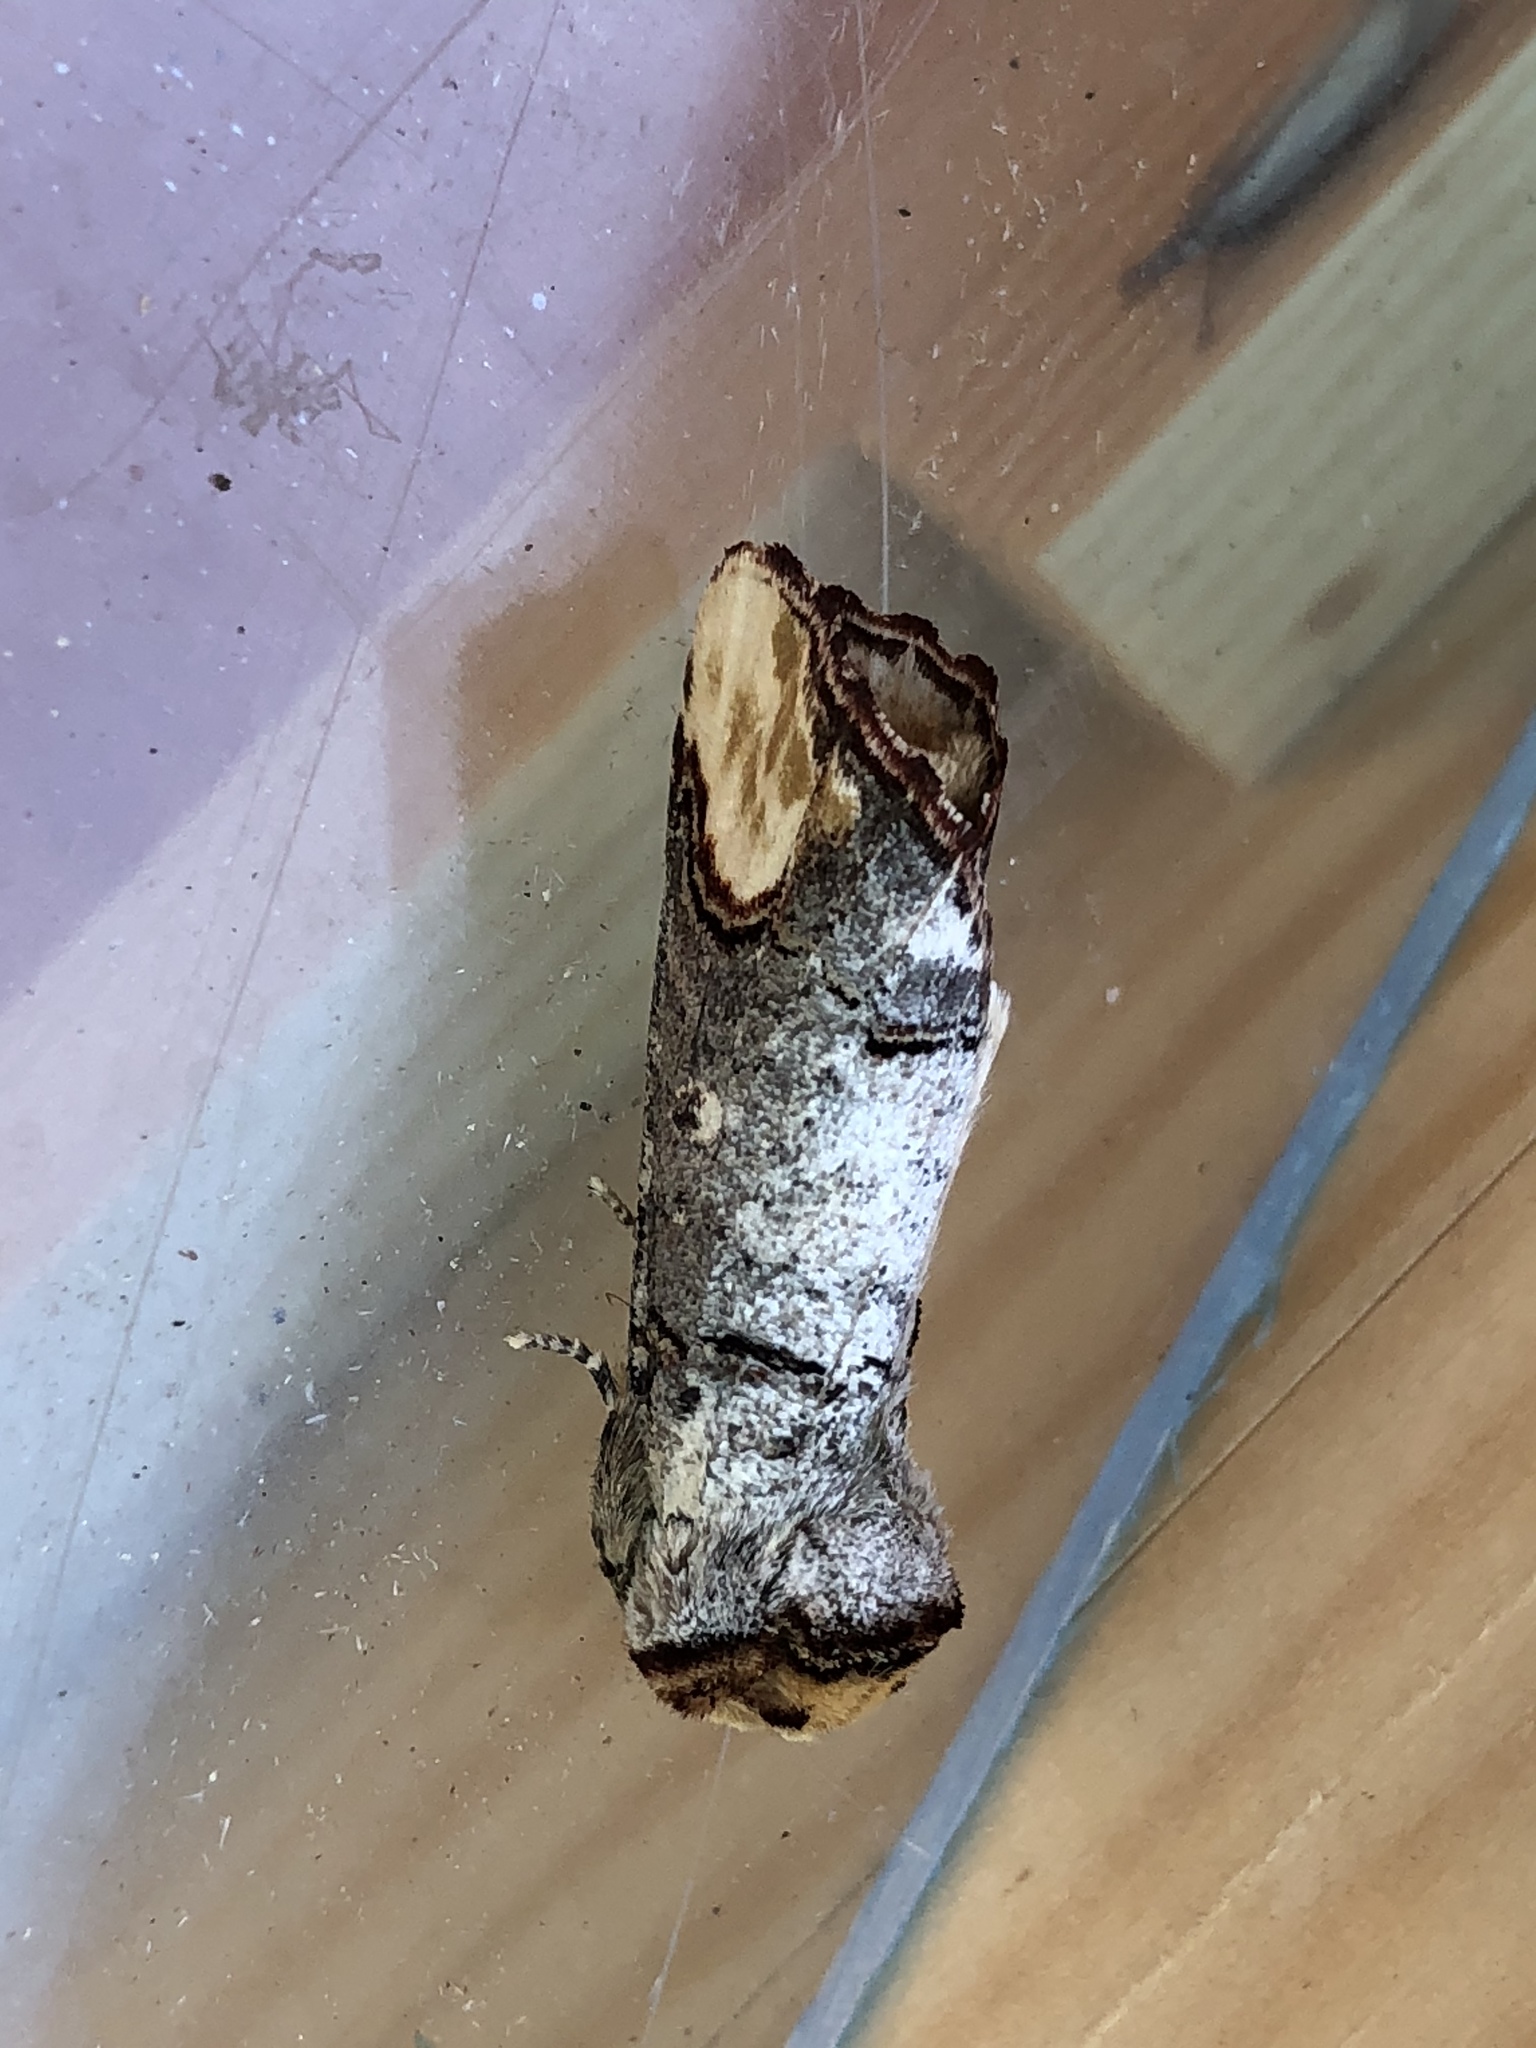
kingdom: Animalia
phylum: Arthropoda
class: Insecta
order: Lepidoptera
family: Notodontidae
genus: Phalera
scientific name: Phalera bucephala
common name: Buff-tip
